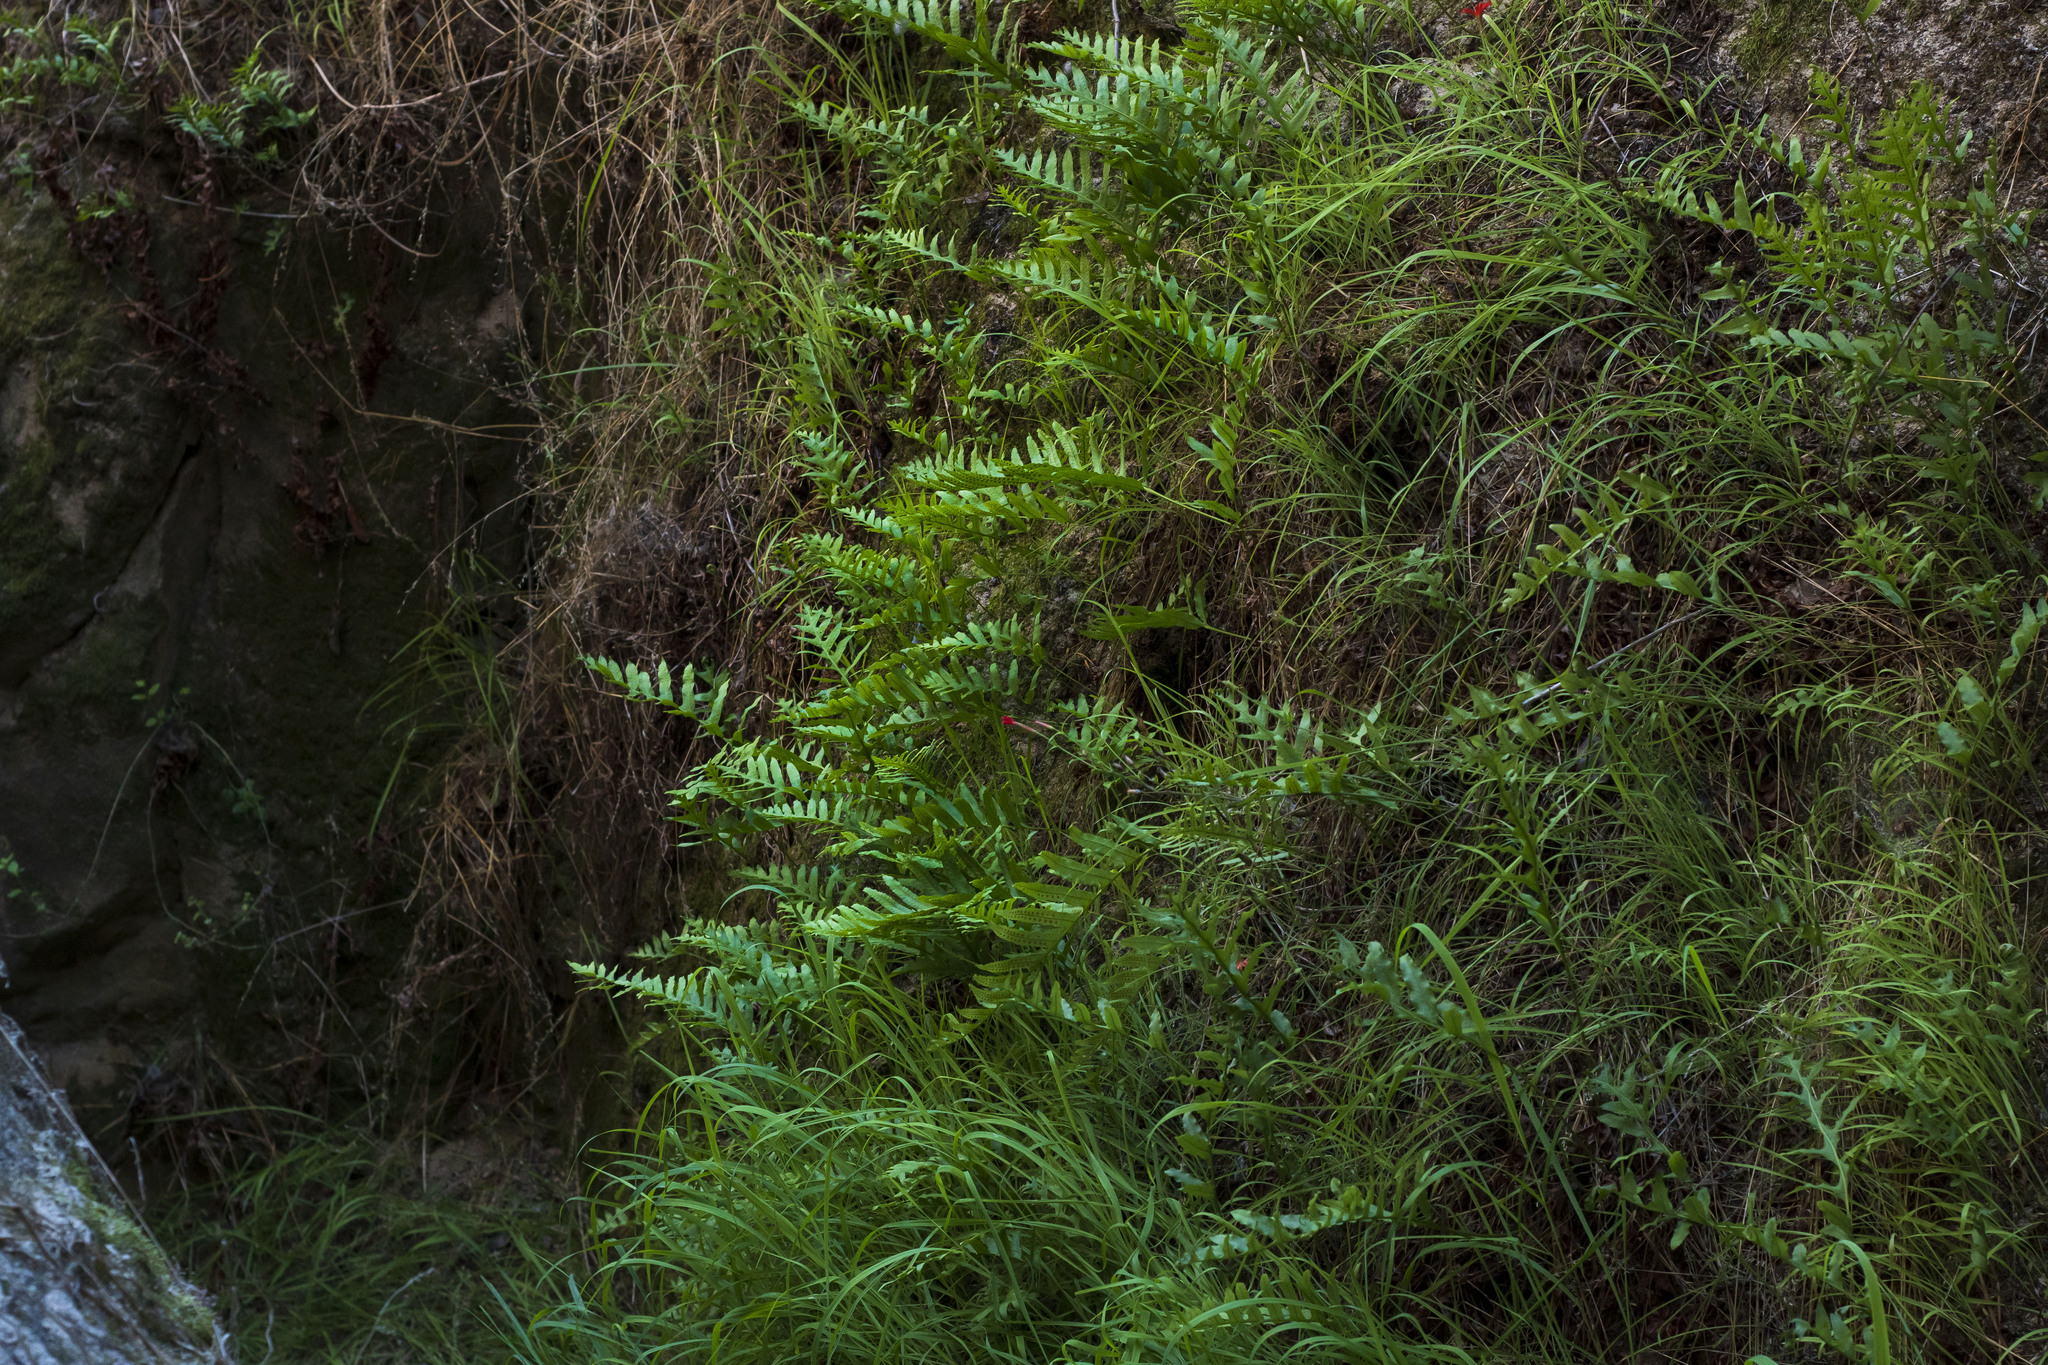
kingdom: Plantae
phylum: Tracheophyta
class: Polypodiopsida
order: Polypodiales
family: Polypodiaceae
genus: Polypodium
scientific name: Polypodium californicum
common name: California polypody
